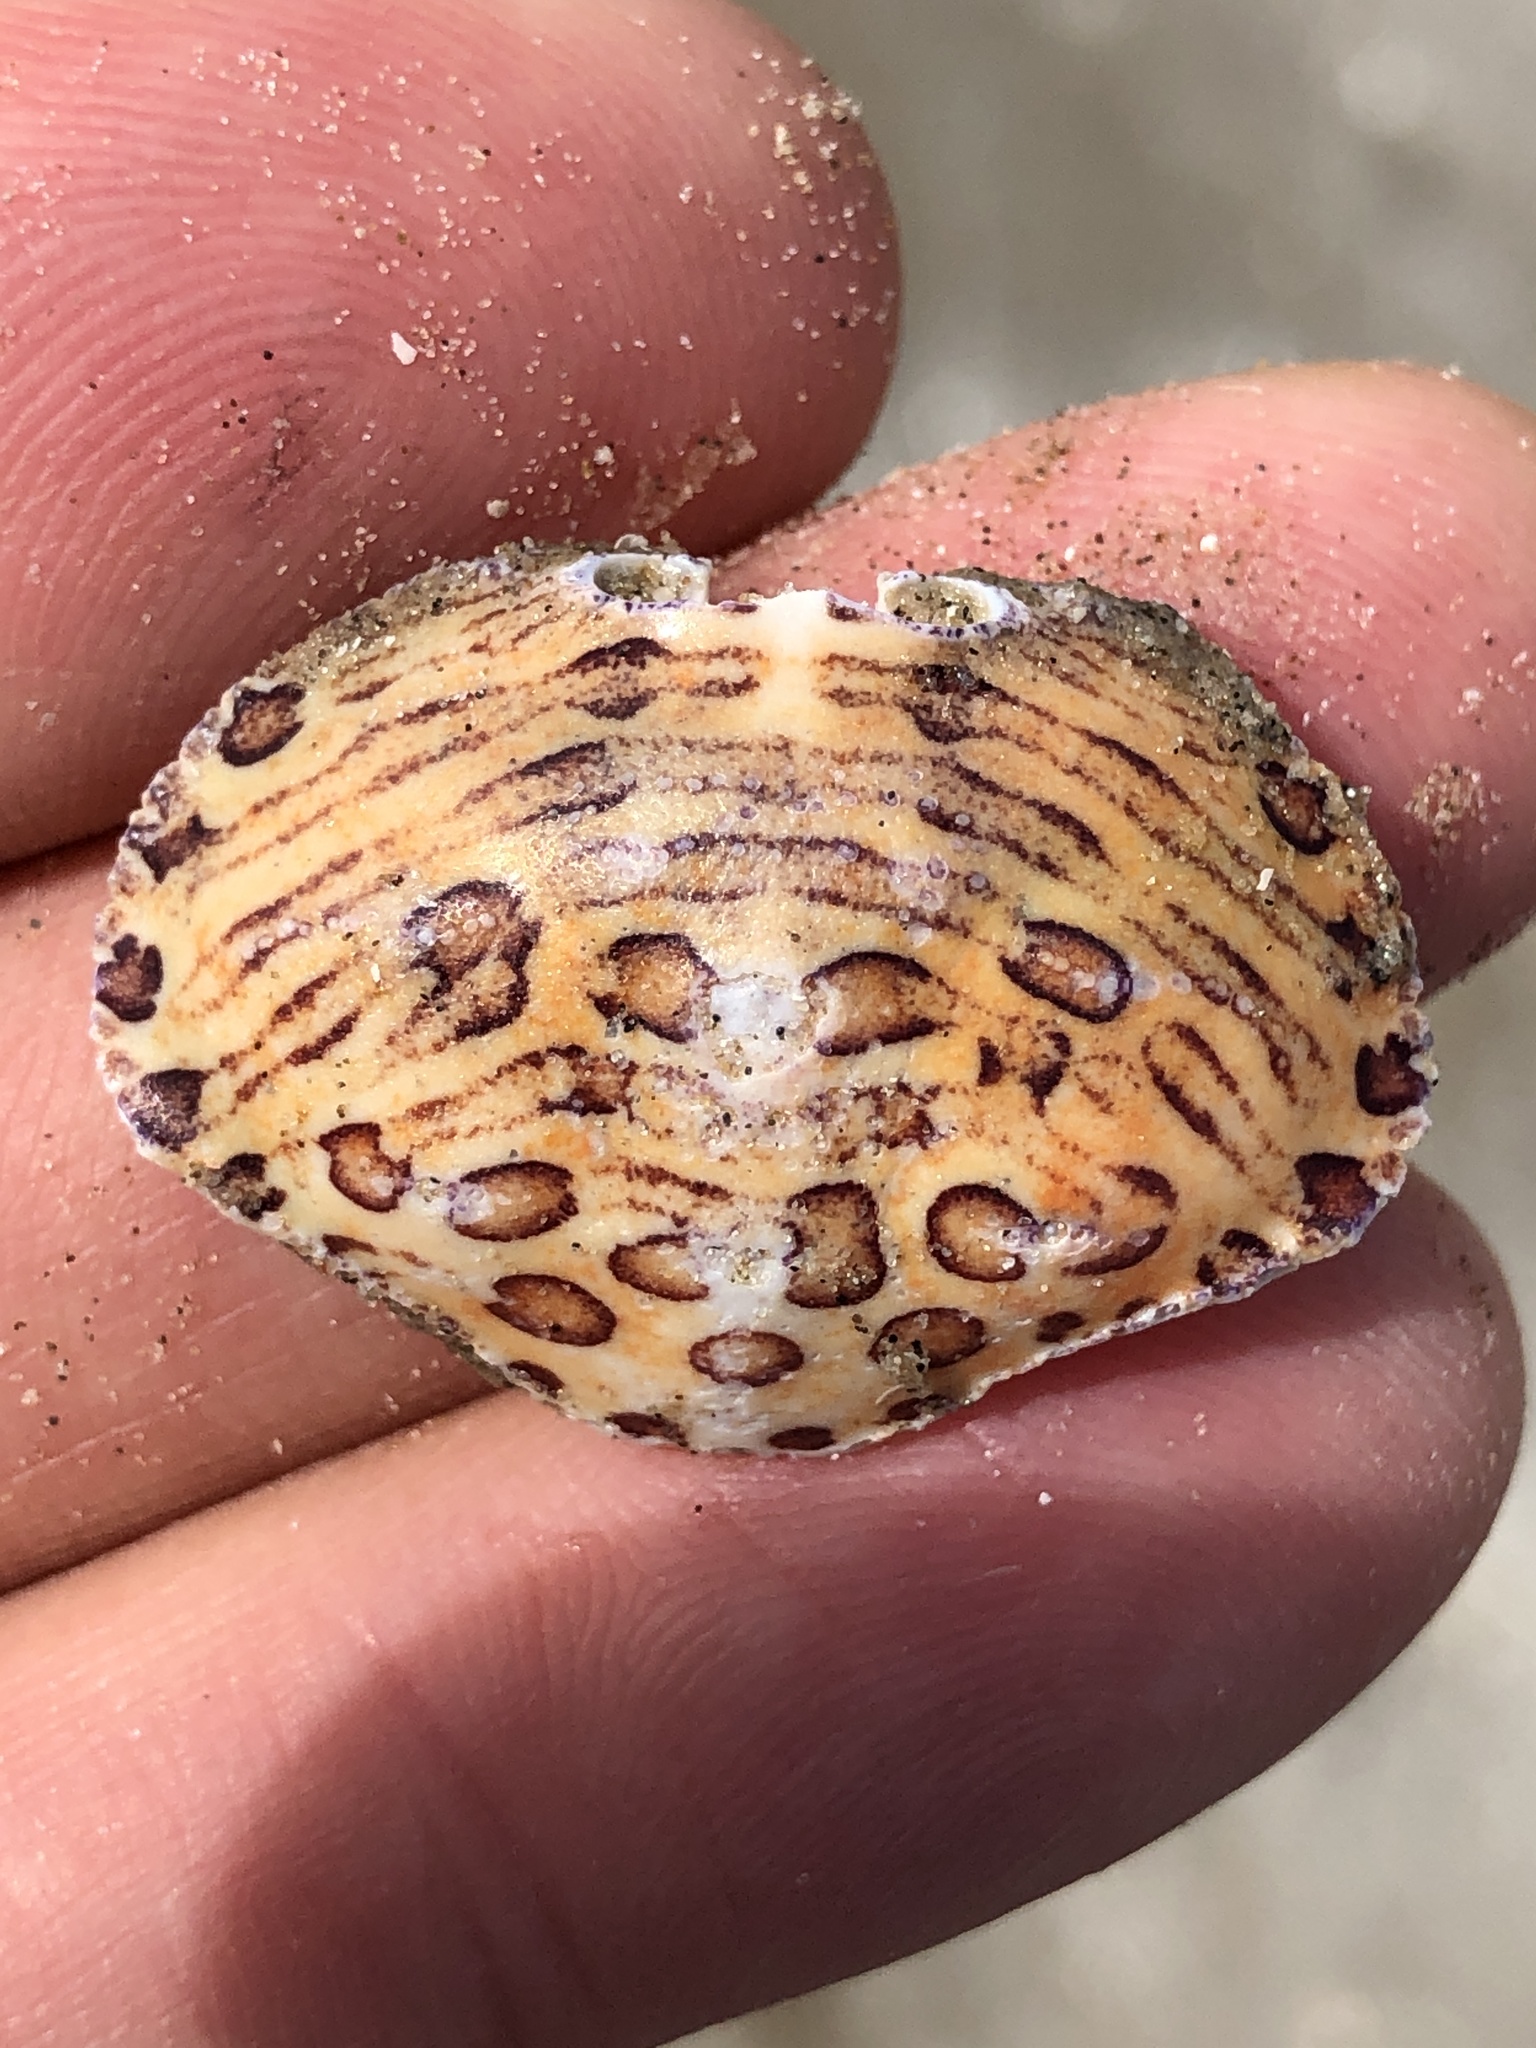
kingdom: Animalia
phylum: Arthropoda
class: Malacostraca
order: Decapoda
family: Aethridae
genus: Hepatus
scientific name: Hepatus epheliticus
